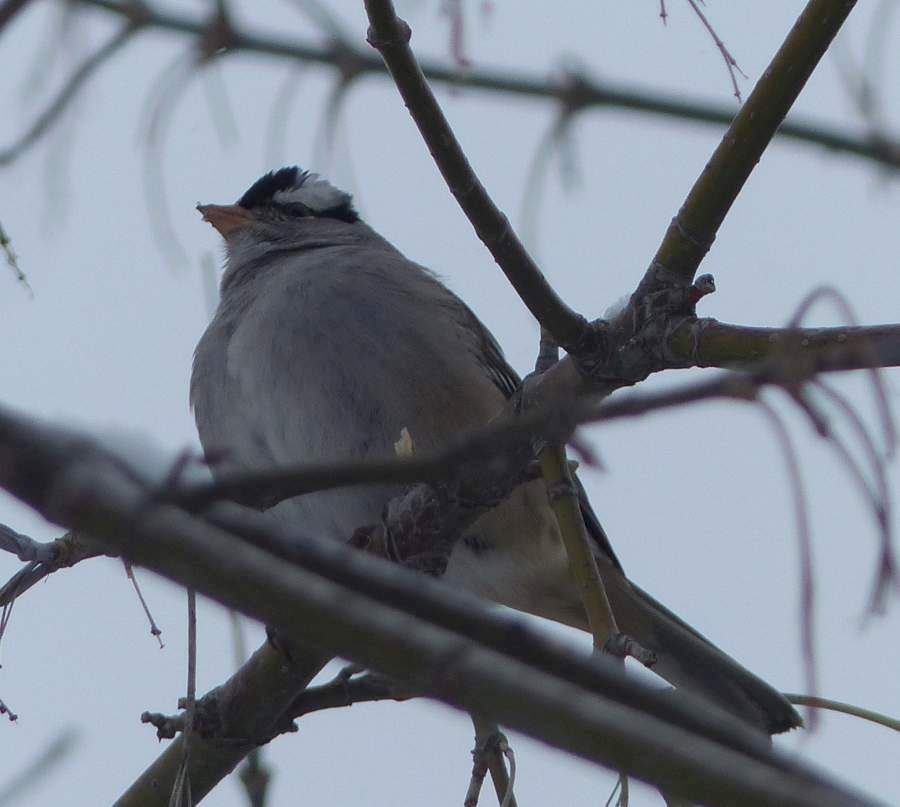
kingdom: Animalia
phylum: Chordata
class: Aves
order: Passeriformes
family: Passerellidae
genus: Zonotrichia
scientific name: Zonotrichia leucophrys
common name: White-crowned sparrow
